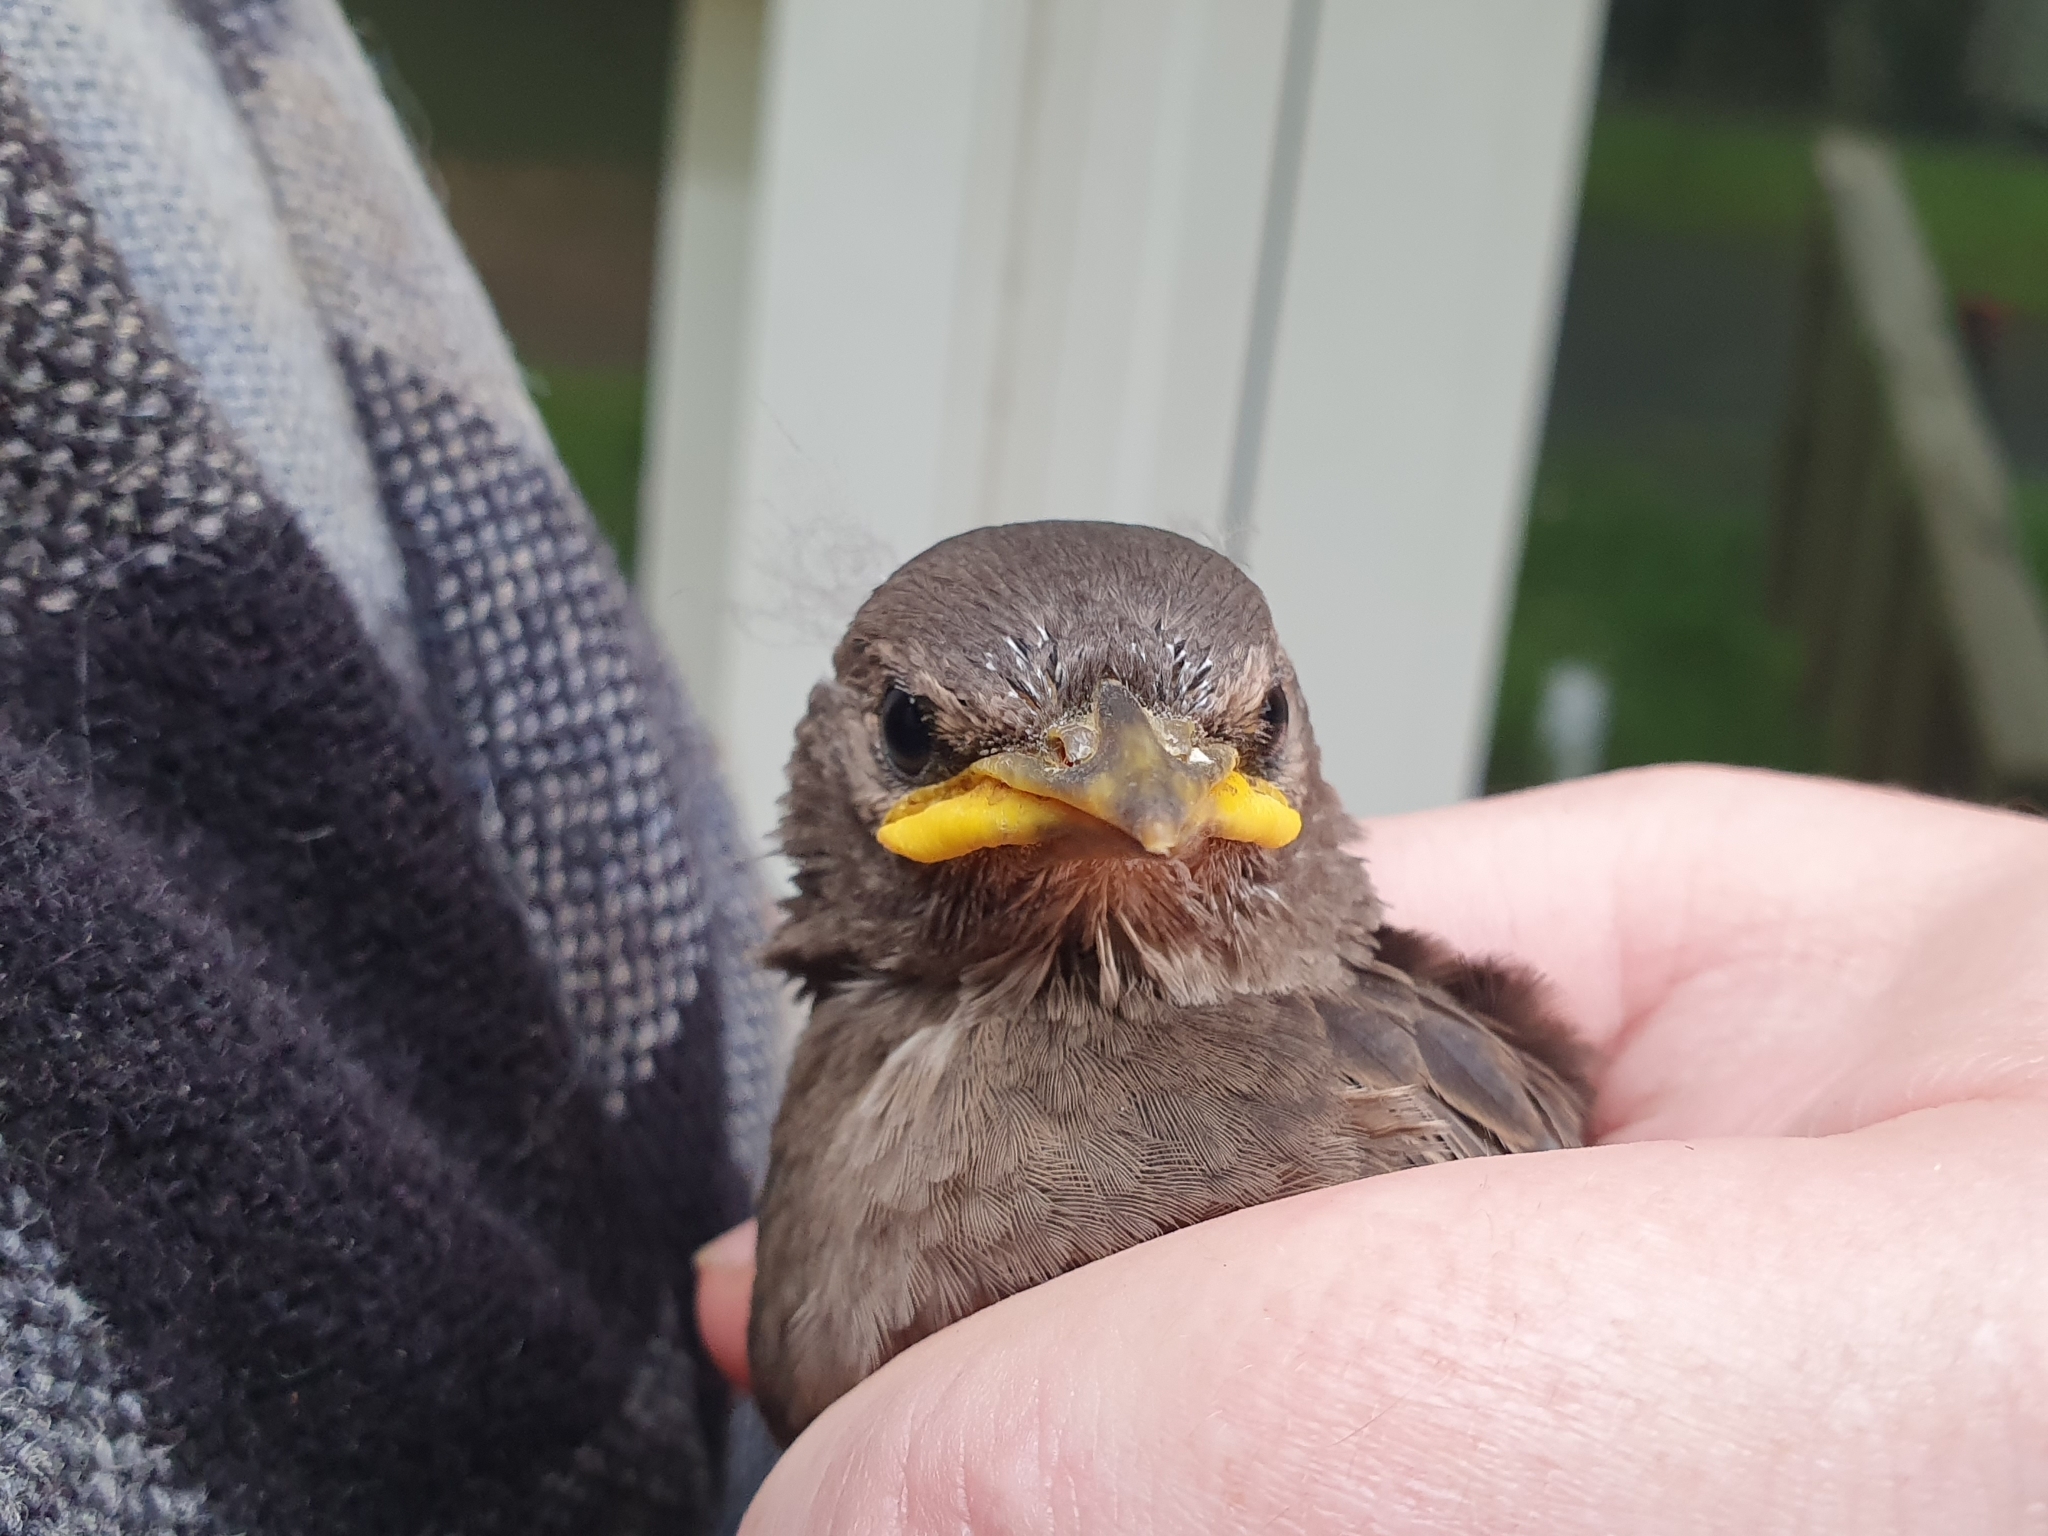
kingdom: Animalia
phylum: Chordata
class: Aves
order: Passeriformes
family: Sturnidae
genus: Sturnus
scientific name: Sturnus vulgaris
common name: Common starling
